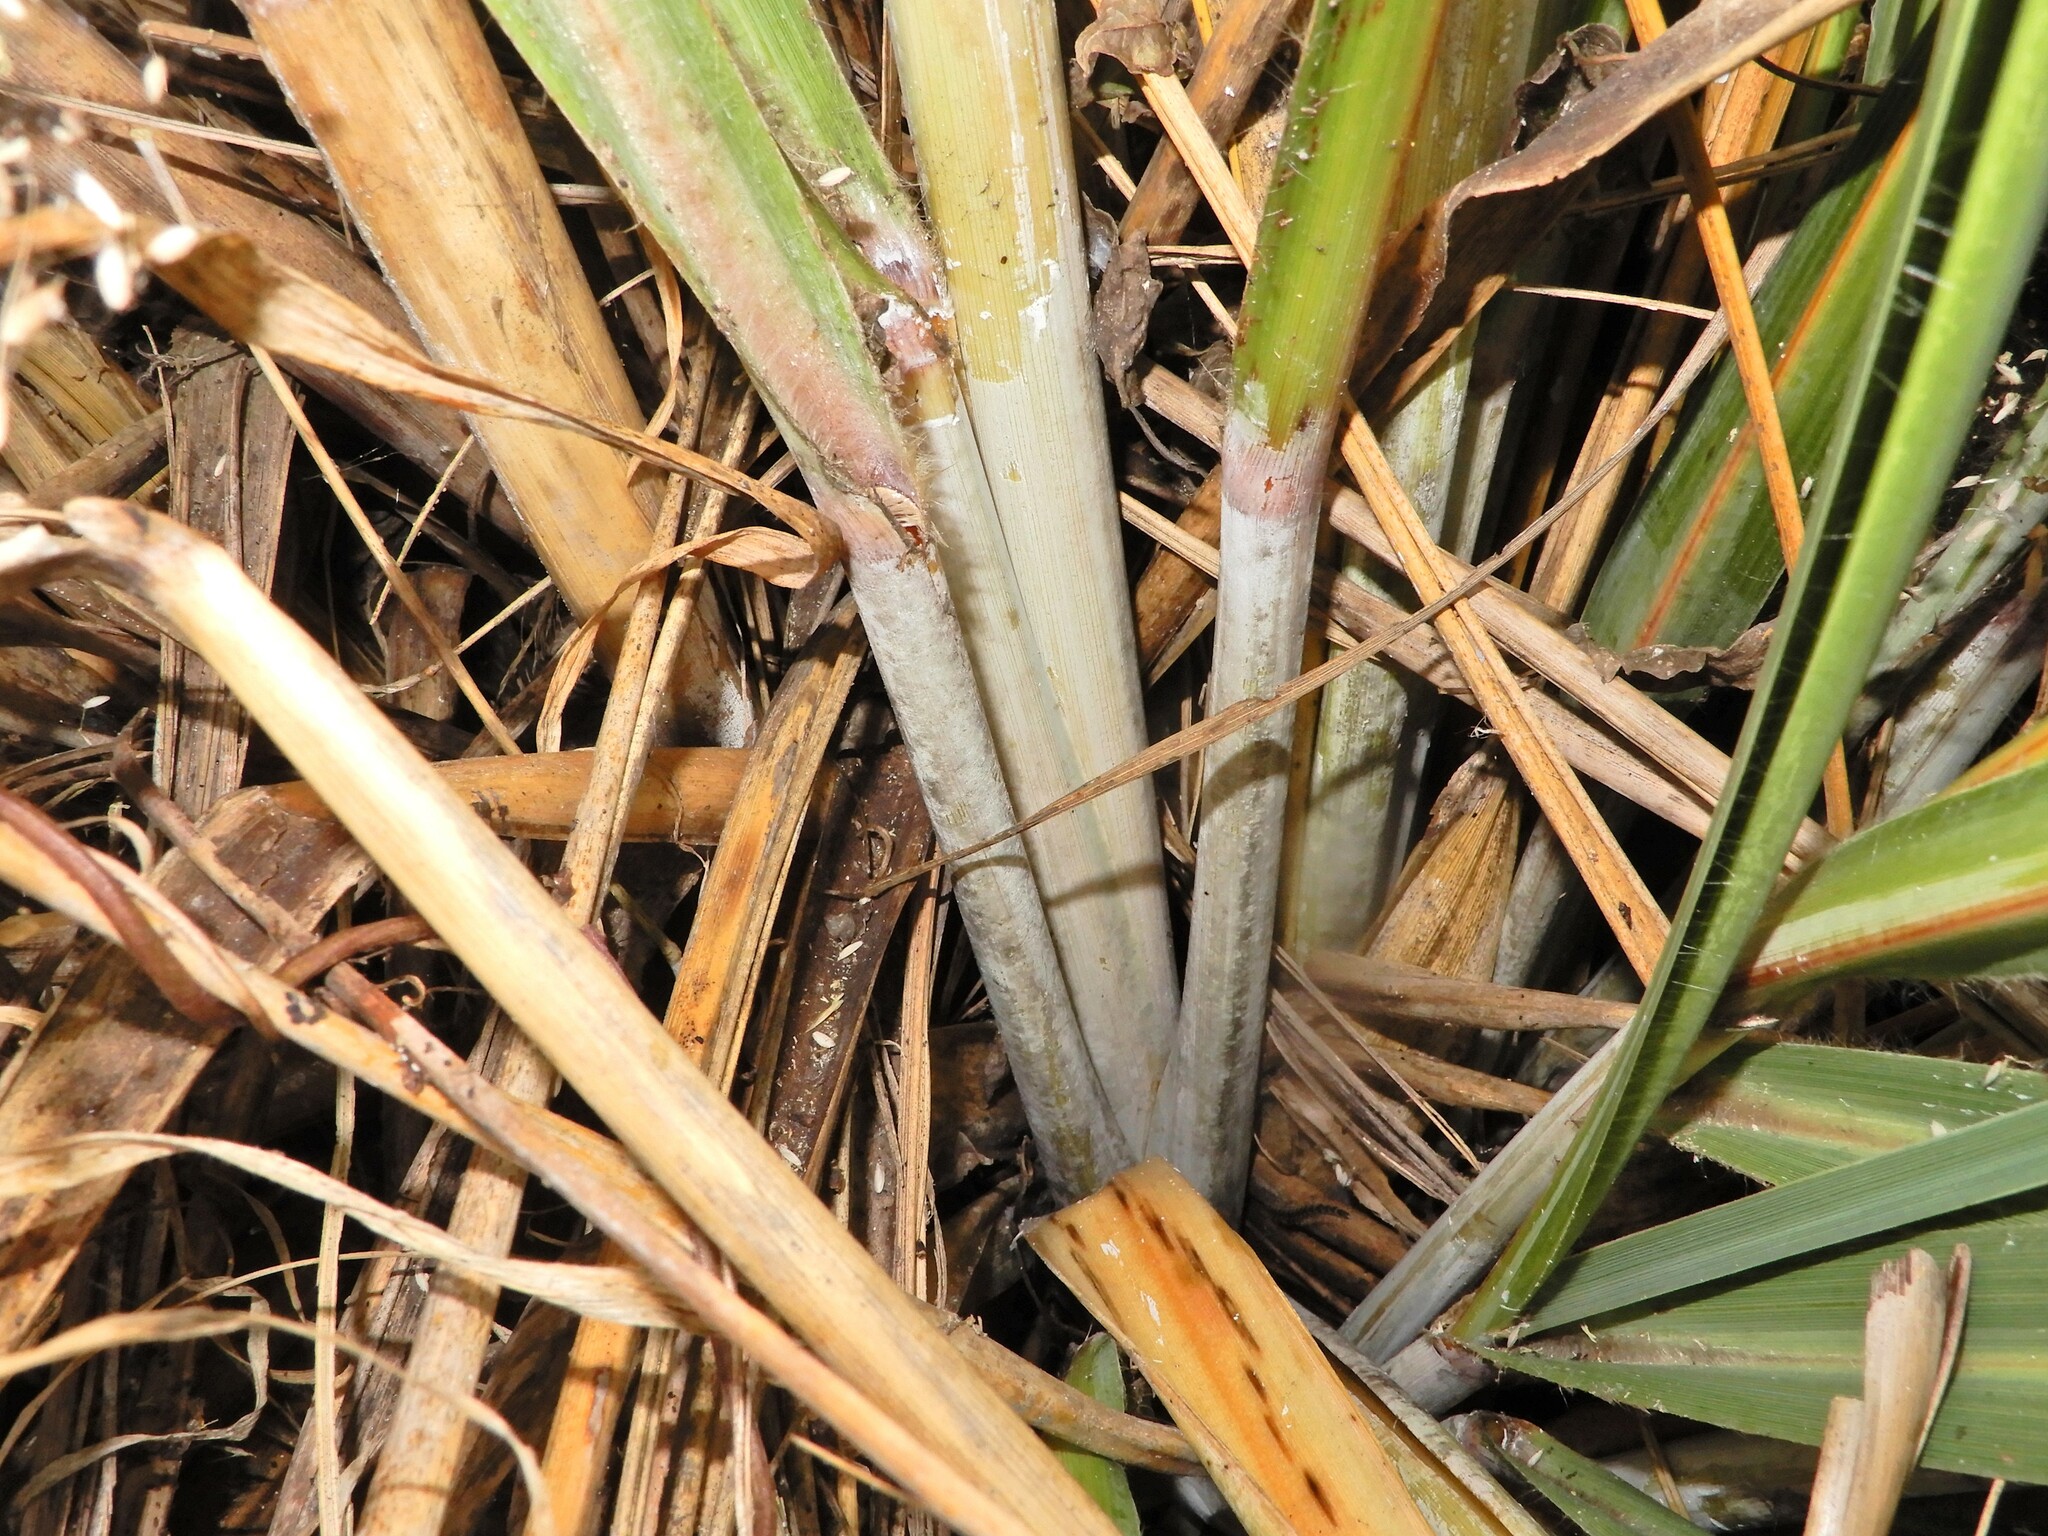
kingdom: Plantae
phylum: Tracheophyta
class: Liliopsida
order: Poales
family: Poaceae
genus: Austroderia
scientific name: Austroderia toetoe
